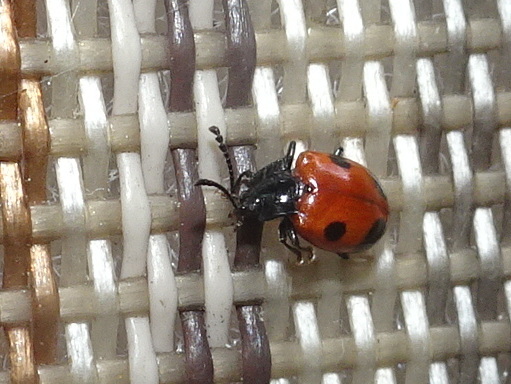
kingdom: Animalia
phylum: Arthropoda
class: Insecta
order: Coleoptera
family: Endomychidae
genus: Endomychus
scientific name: Endomychus biguttatus
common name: Handsome fungus beetle
